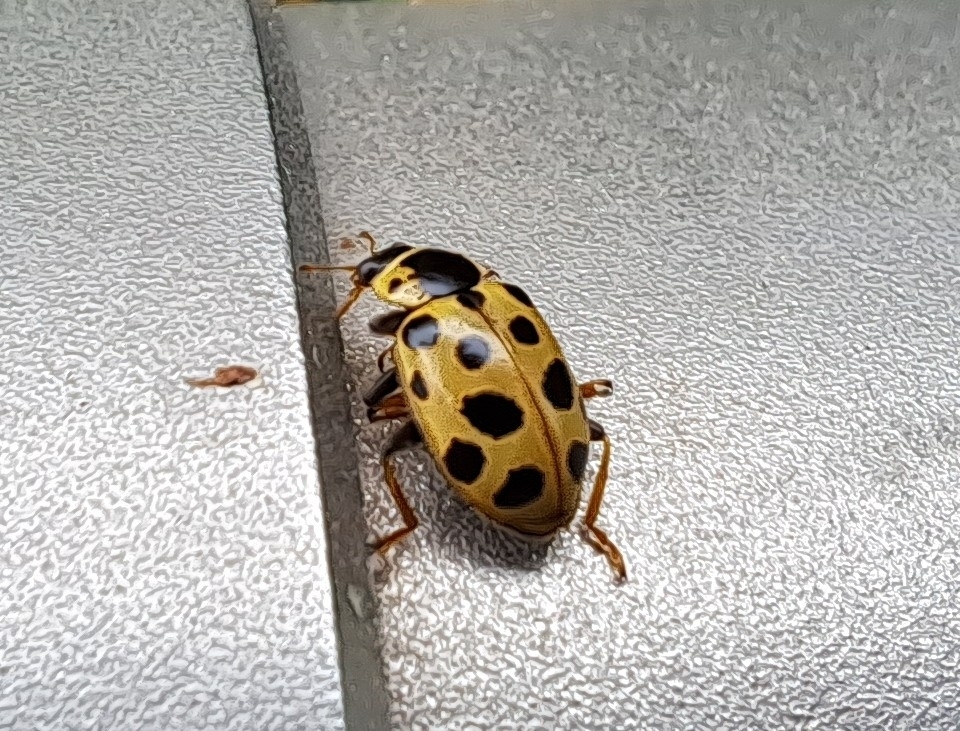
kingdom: Animalia
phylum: Arthropoda
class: Insecta
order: Coleoptera
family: Coccinellidae
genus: Hippodamia
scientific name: Hippodamia tredecimpunctata
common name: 13-spot ladybird
